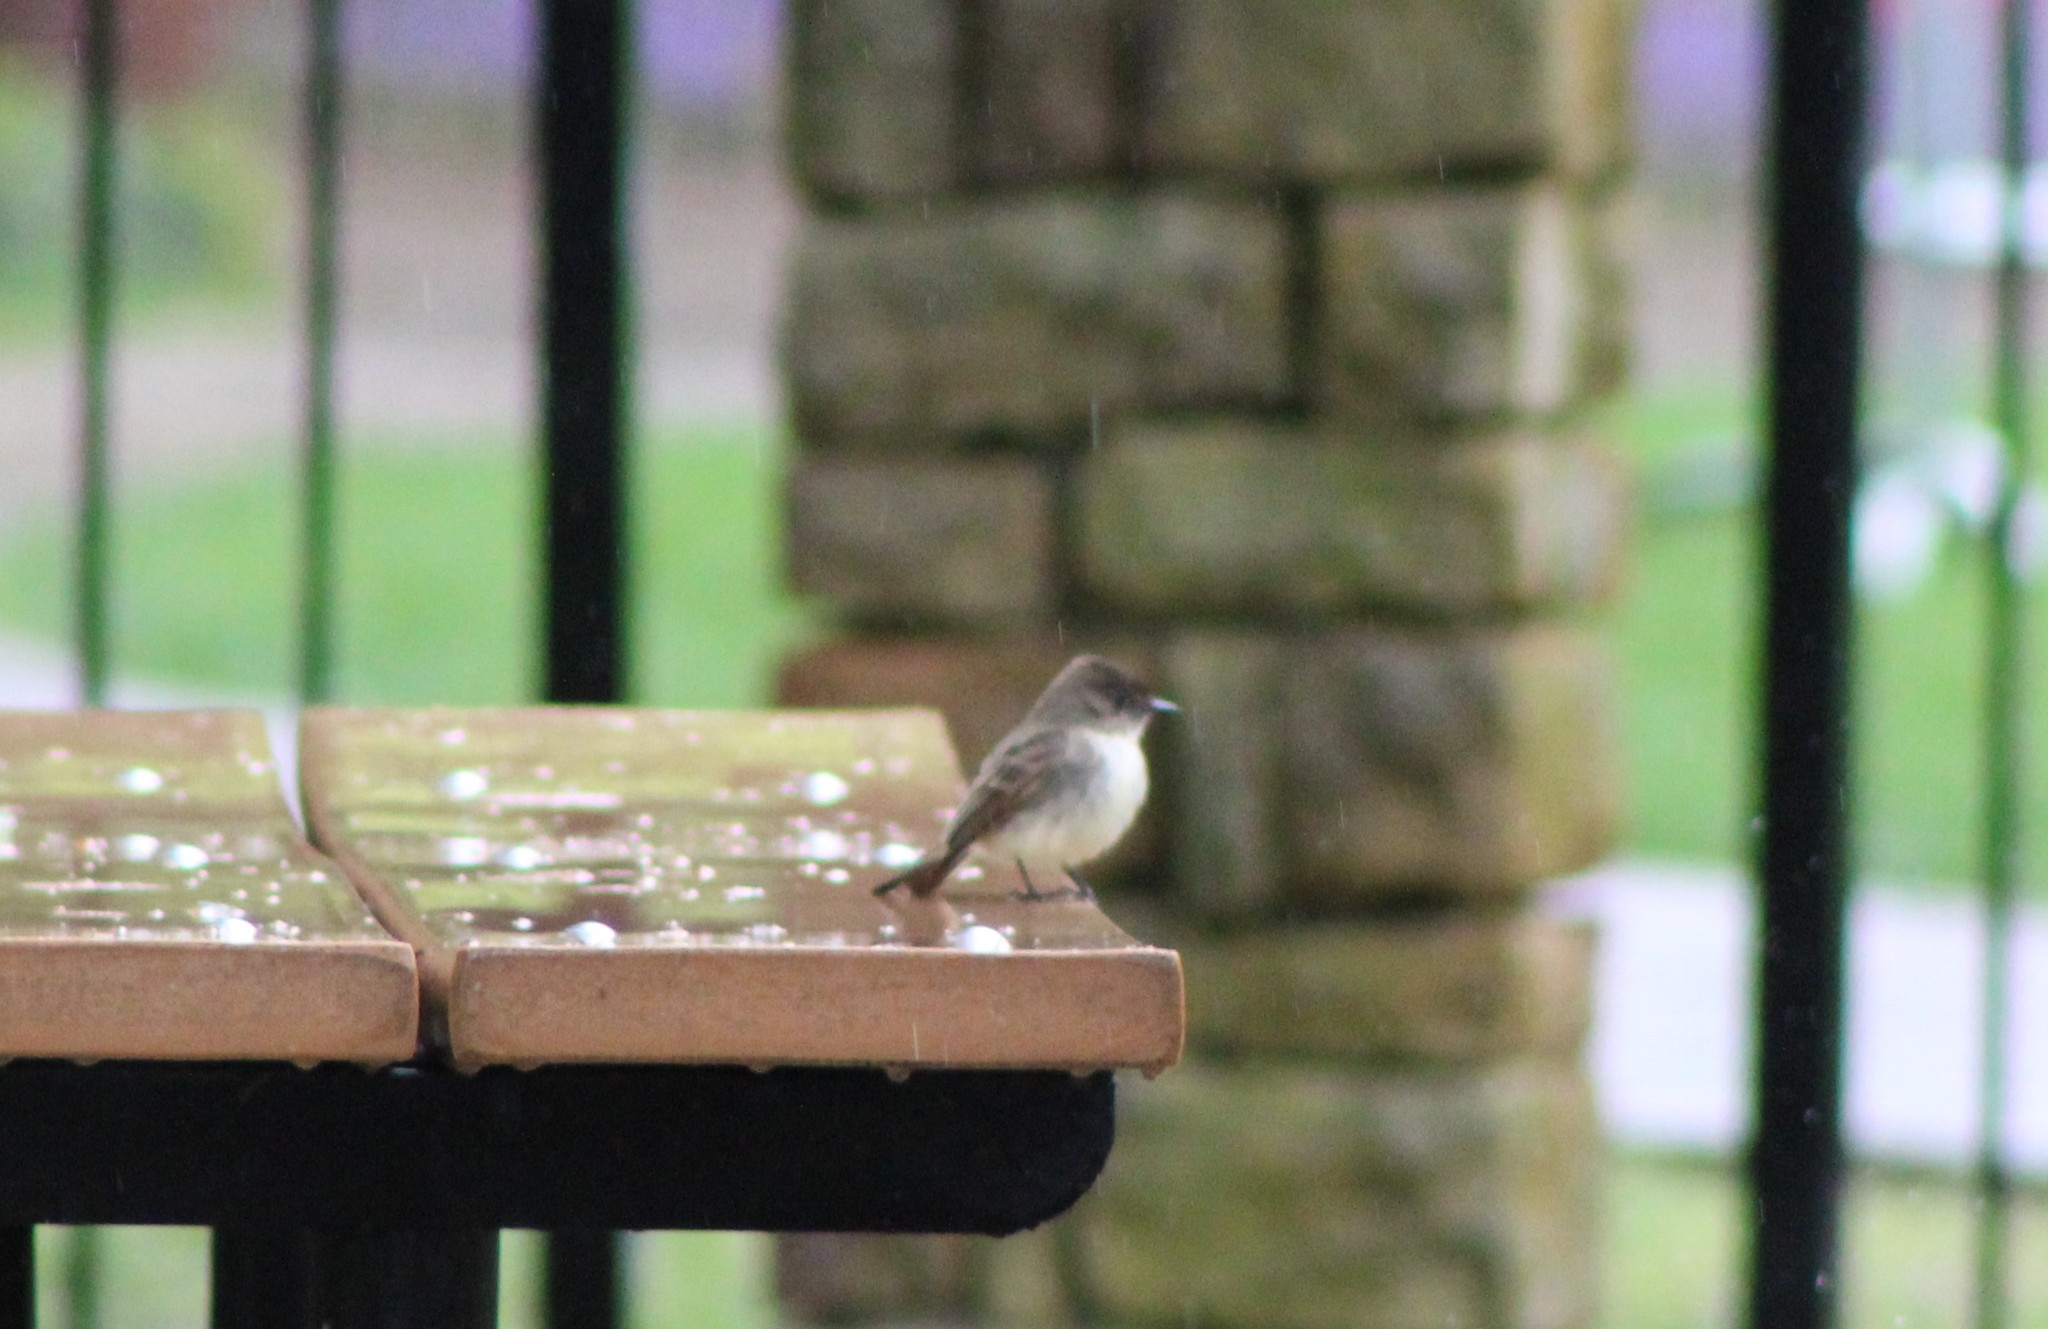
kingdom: Animalia
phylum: Chordata
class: Aves
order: Passeriformes
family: Tyrannidae
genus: Sayornis
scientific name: Sayornis phoebe
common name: Eastern phoebe
